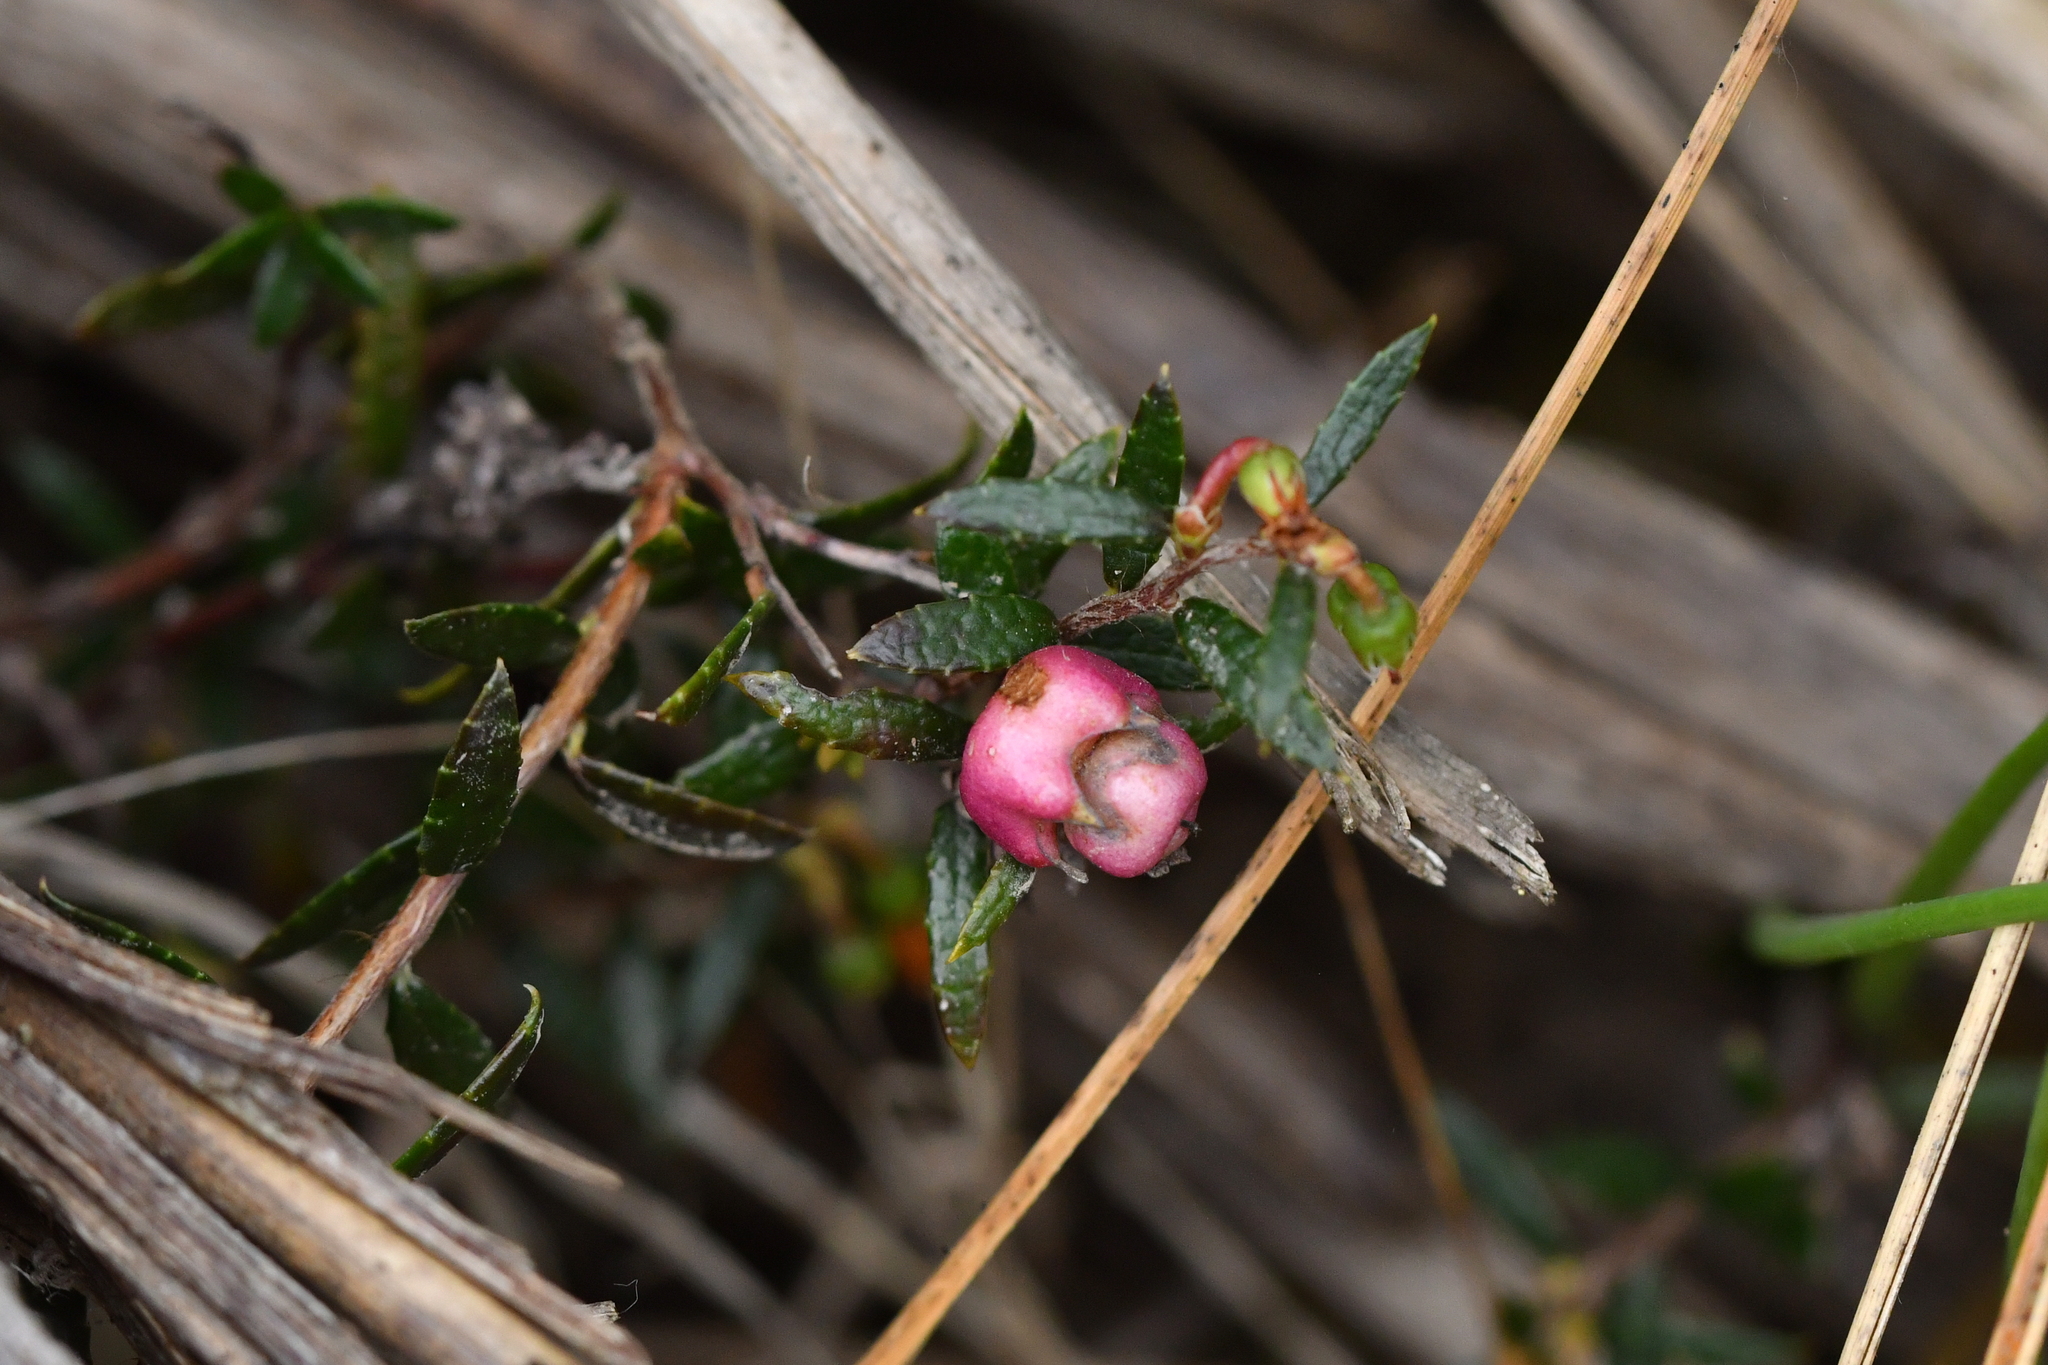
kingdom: Plantae
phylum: Tracheophyta
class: Magnoliopsida
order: Ericales
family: Ericaceae
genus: Gaultheria
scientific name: Gaultheria macrostigma
